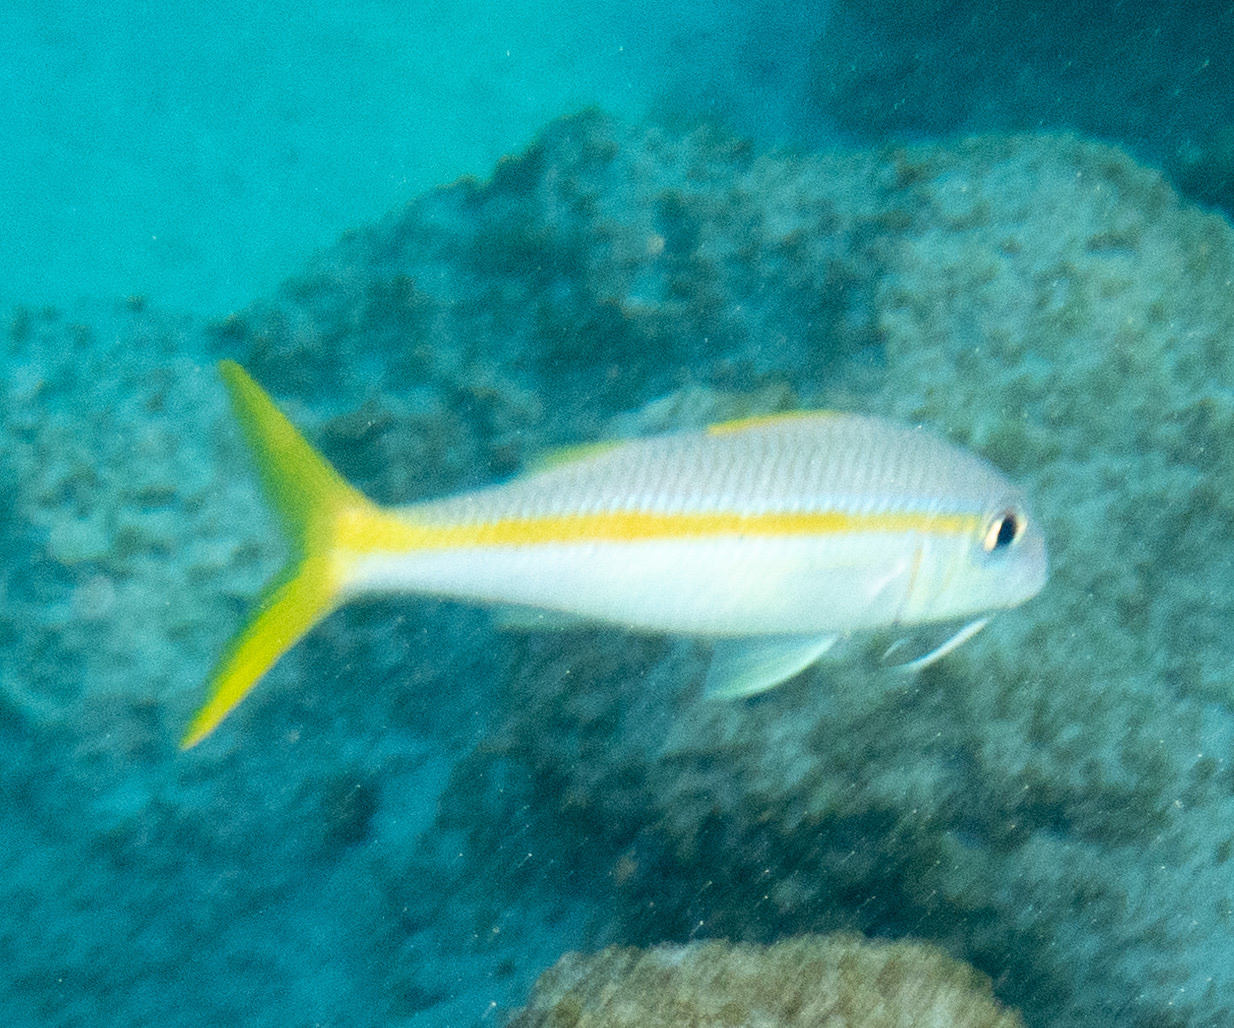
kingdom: Animalia
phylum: Chordata
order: Perciformes
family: Mullidae
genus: Mulloidichthys
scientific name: Mulloidichthys martinicus
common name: Yellow goatfish
